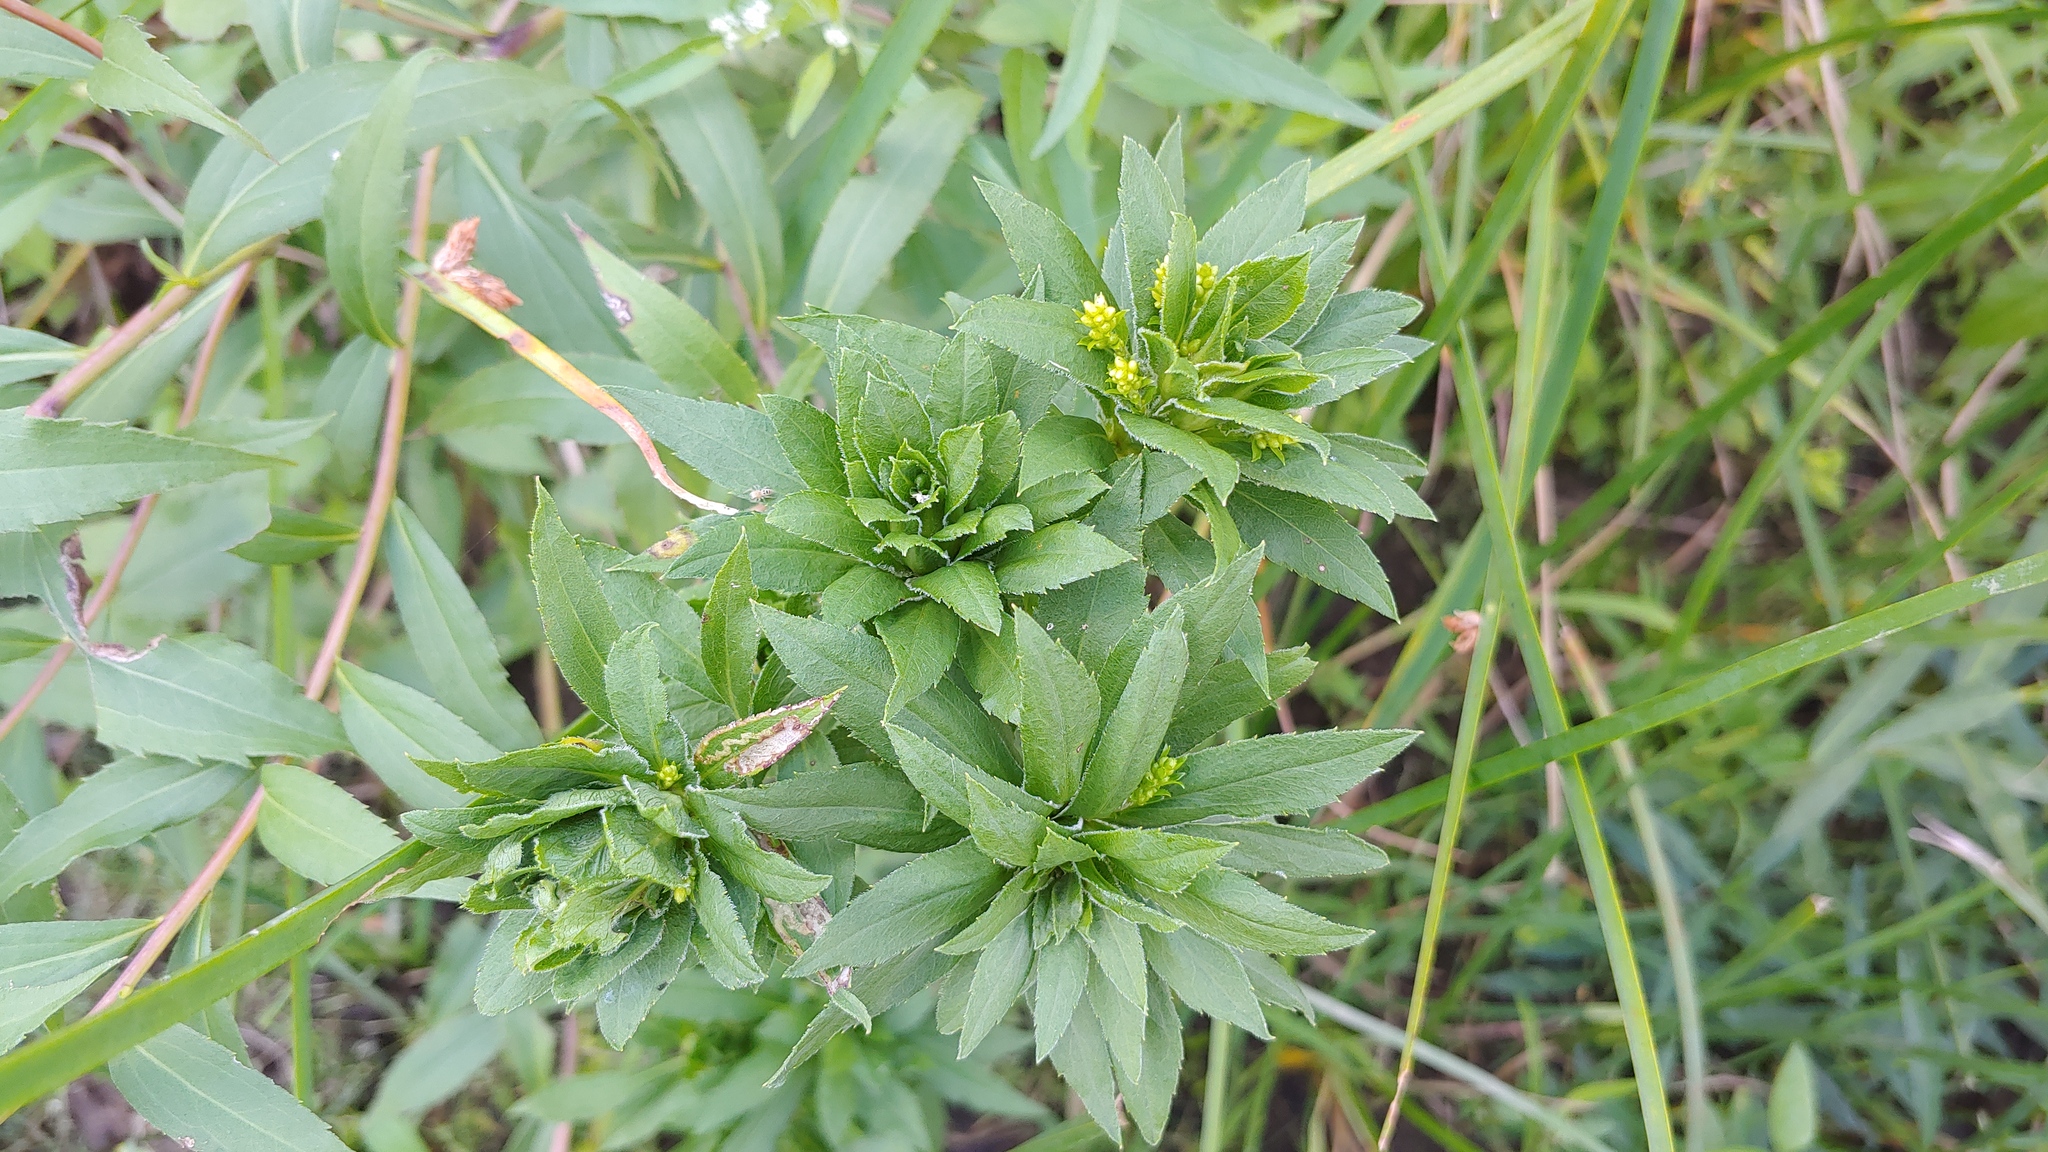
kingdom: Animalia
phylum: Arthropoda
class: Insecta
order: Diptera
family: Cecidomyiidae
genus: Dasineura
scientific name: Dasineura folliculi
